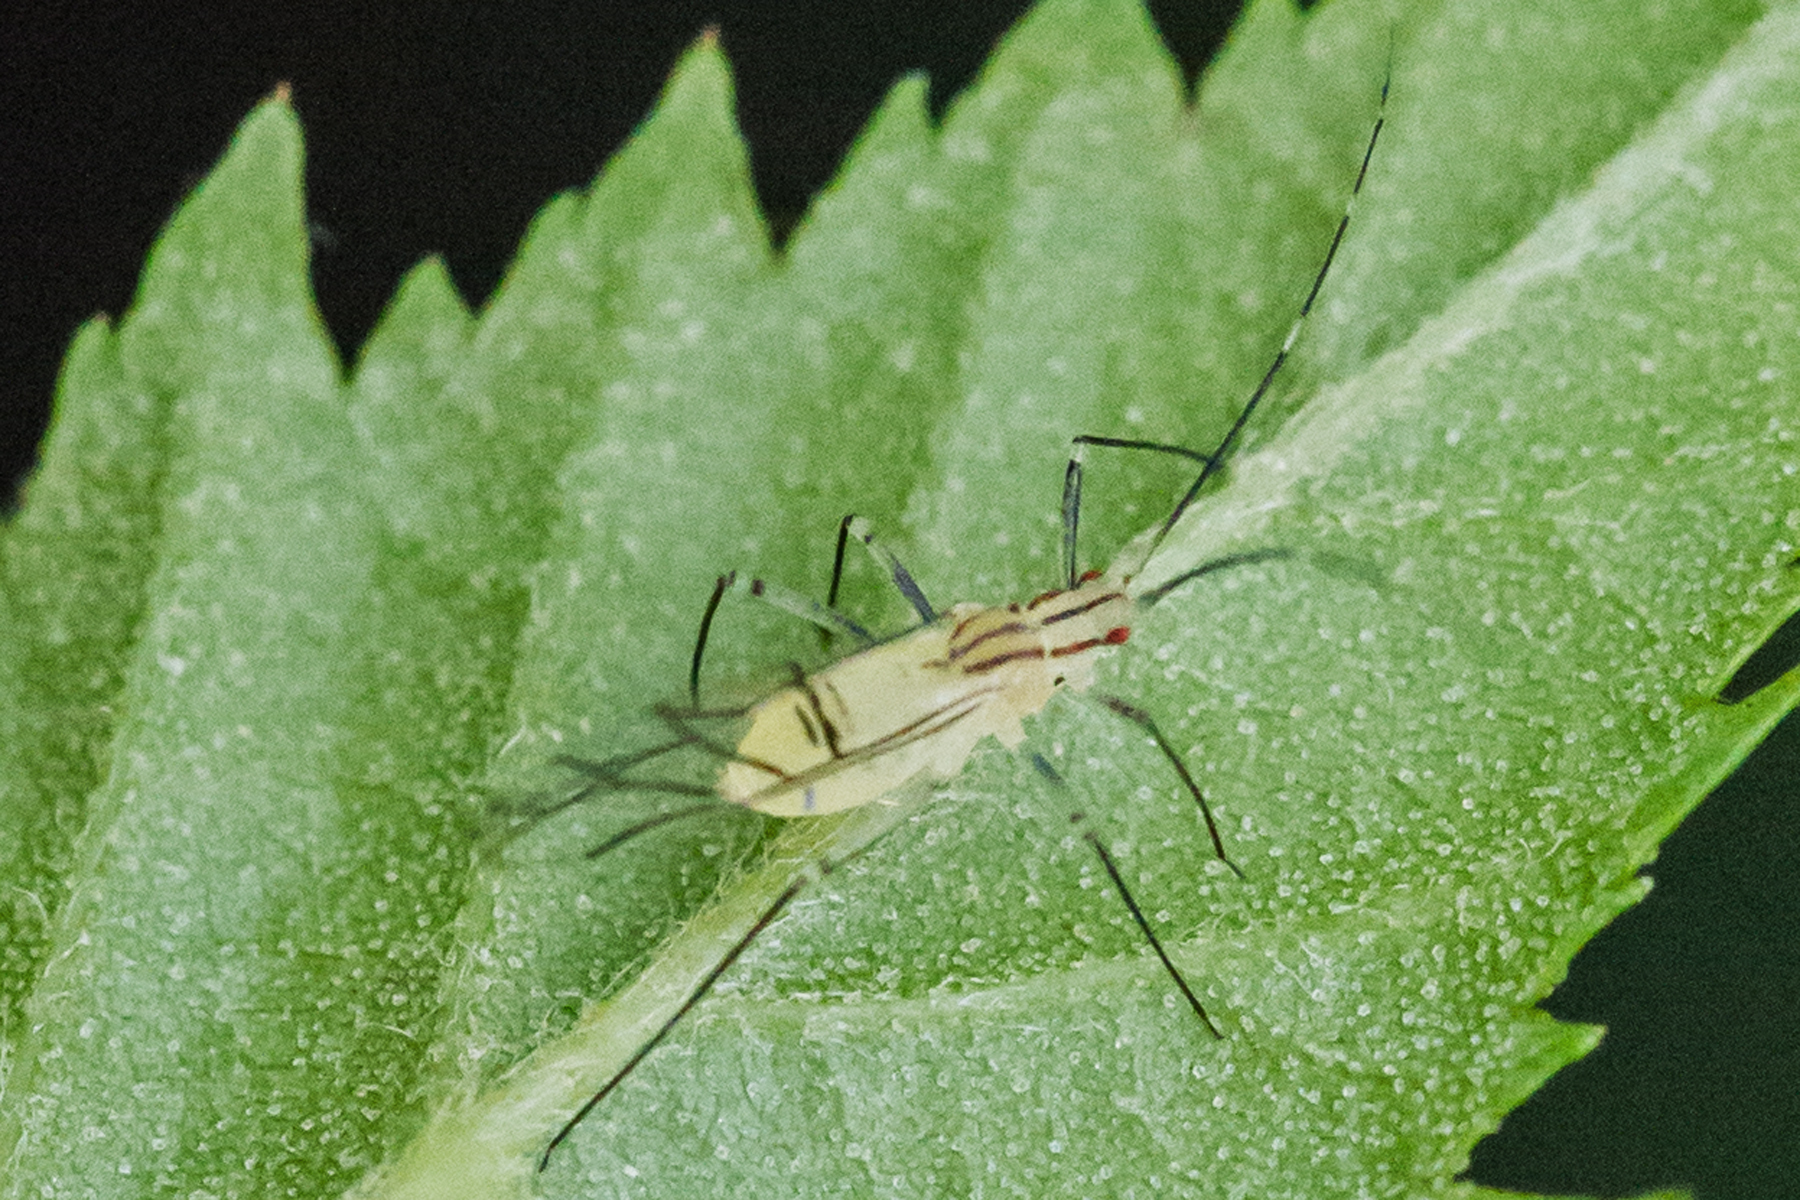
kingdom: Animalia
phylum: Arthropoda
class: Insecta
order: Hemiptera
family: Aphididae
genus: Calaphis
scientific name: Calaphis betulella
